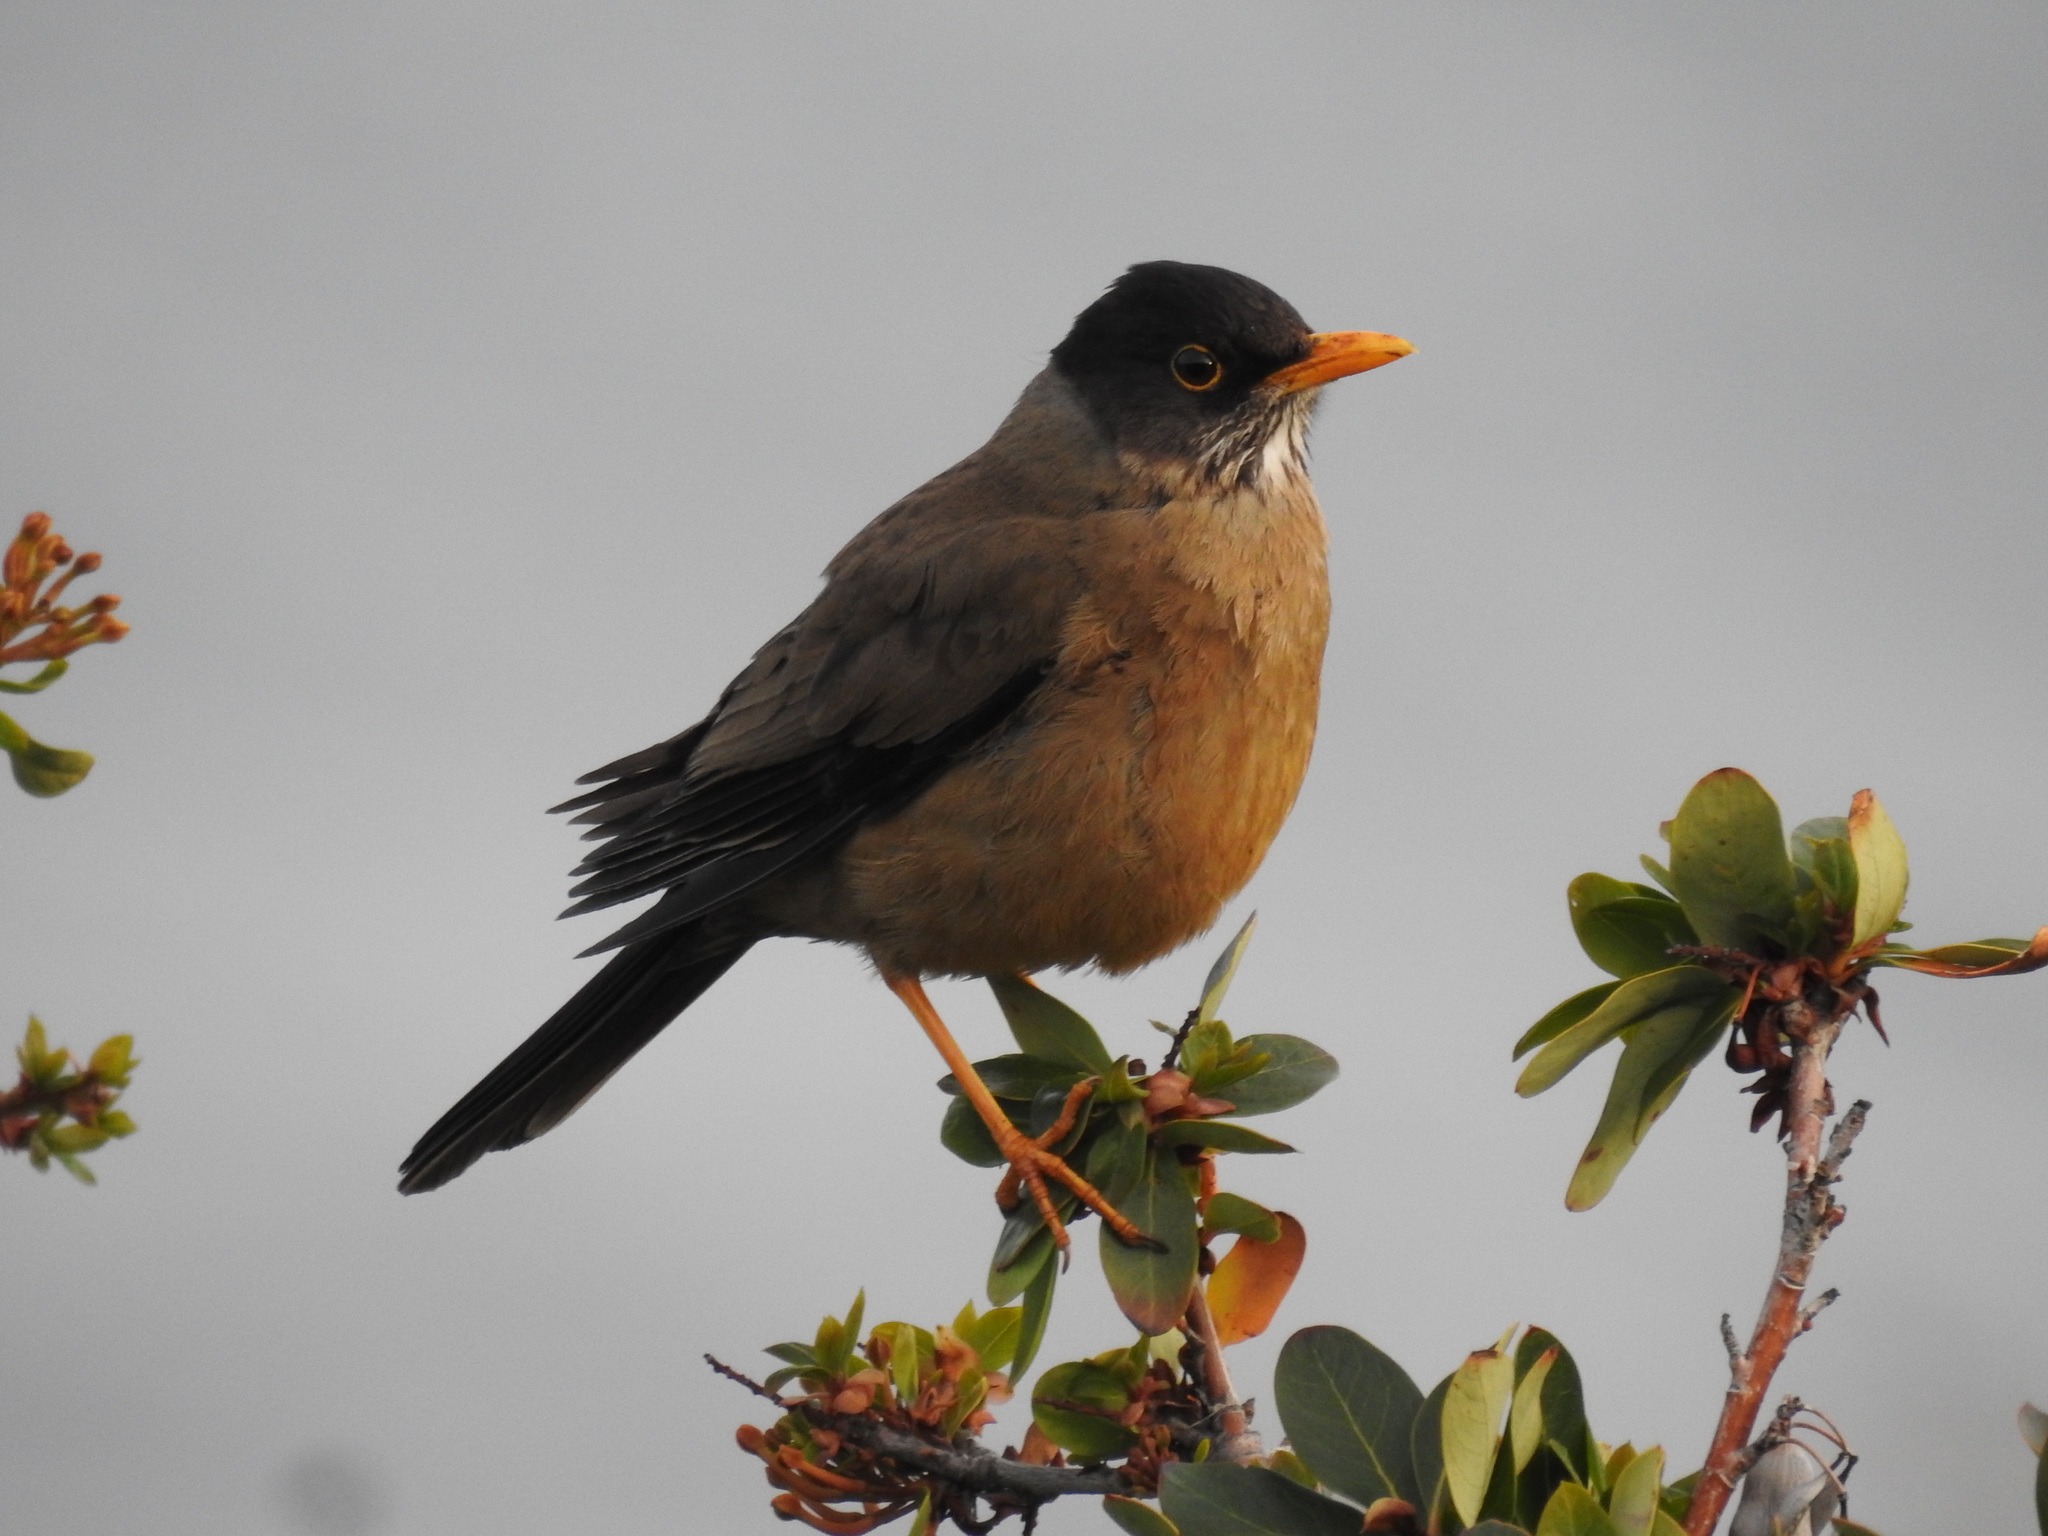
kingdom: Animalia
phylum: Chordata
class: Aves
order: Passeriformes
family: Turdidae
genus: Turdus
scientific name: Turdus falcklandii
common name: Austral thrush
